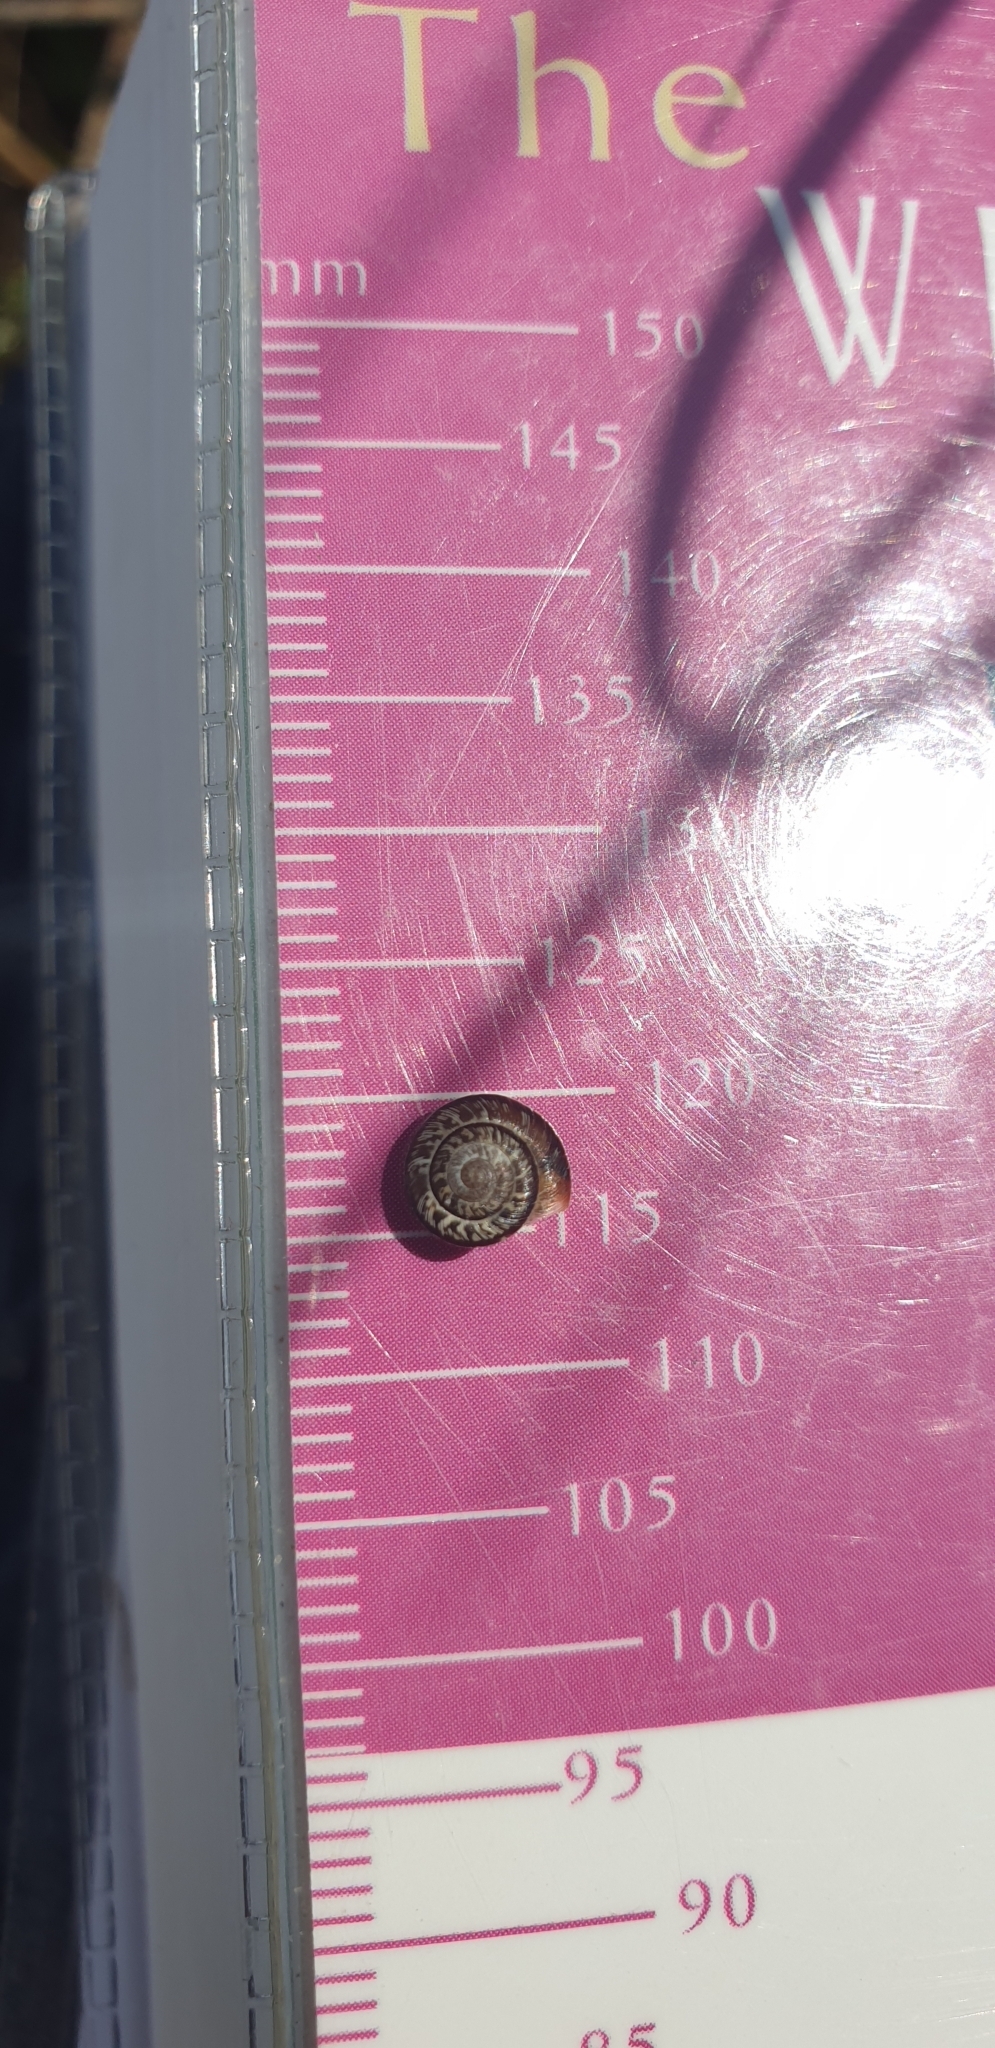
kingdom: Animalia
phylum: Mollusca
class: Gastropoda
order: Stylommatophora
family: Geomitridae
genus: Xeroplexa
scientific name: Xeroplexa intersecta
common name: Wrinkled snail
